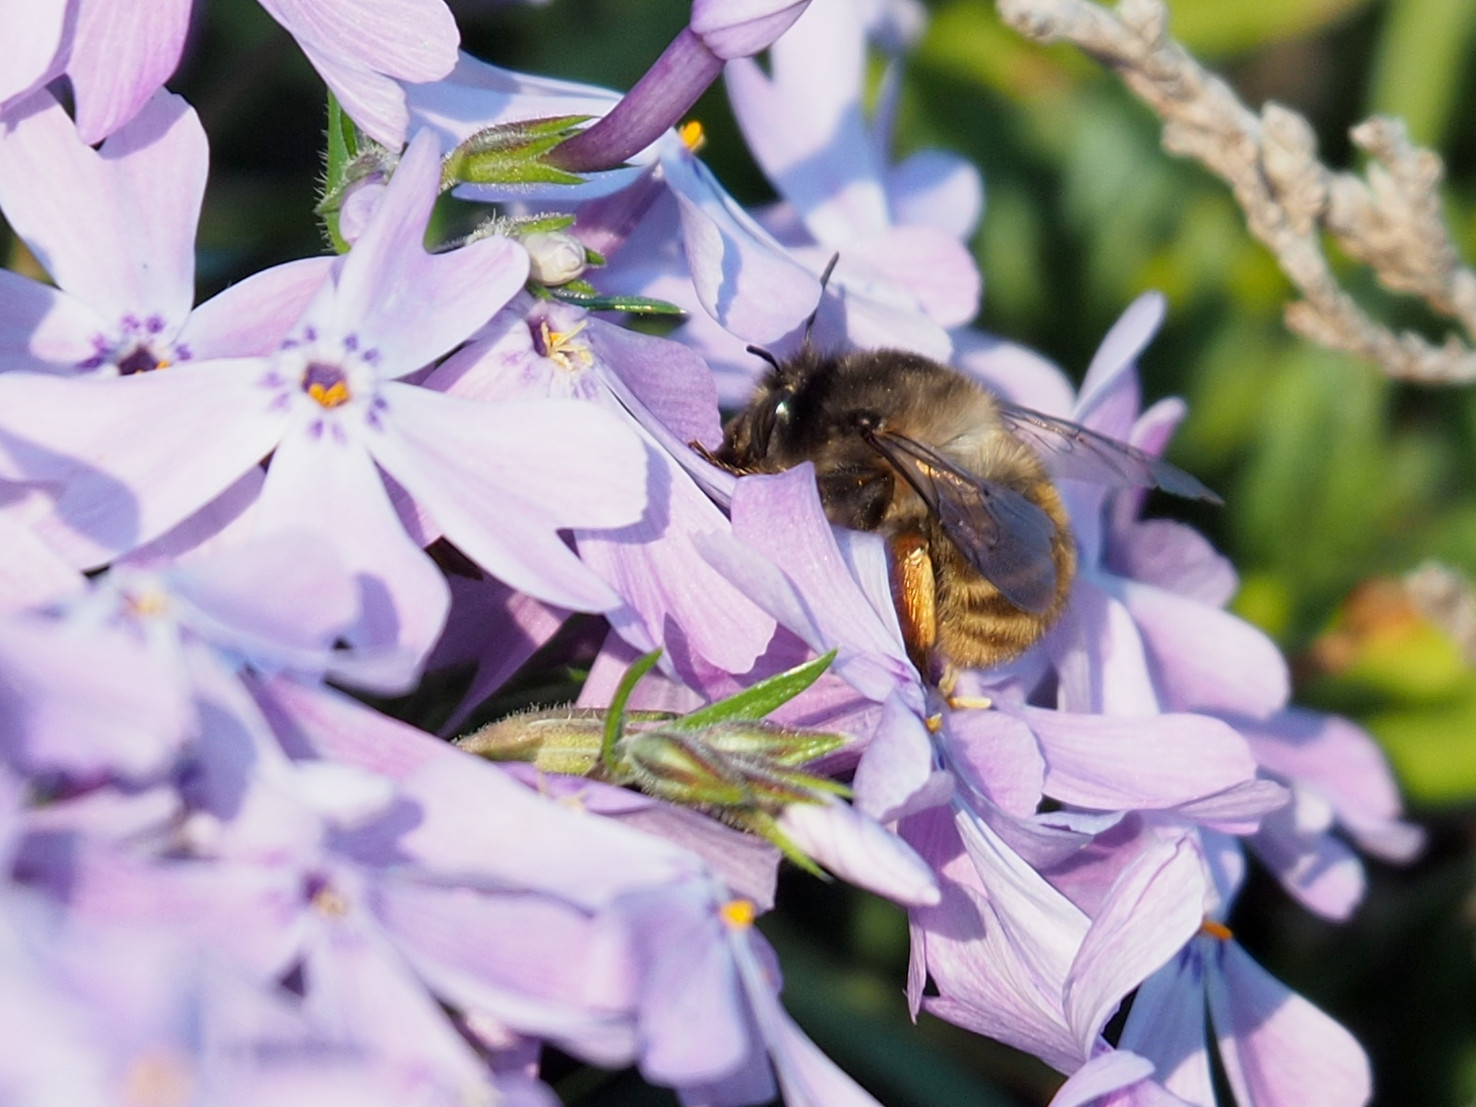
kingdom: Animalia
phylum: Arthropoda
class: Insecta
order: Hymenoptera
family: Apidae
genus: Anthophora
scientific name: Anthophora villosula
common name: Asian shaggy digger
